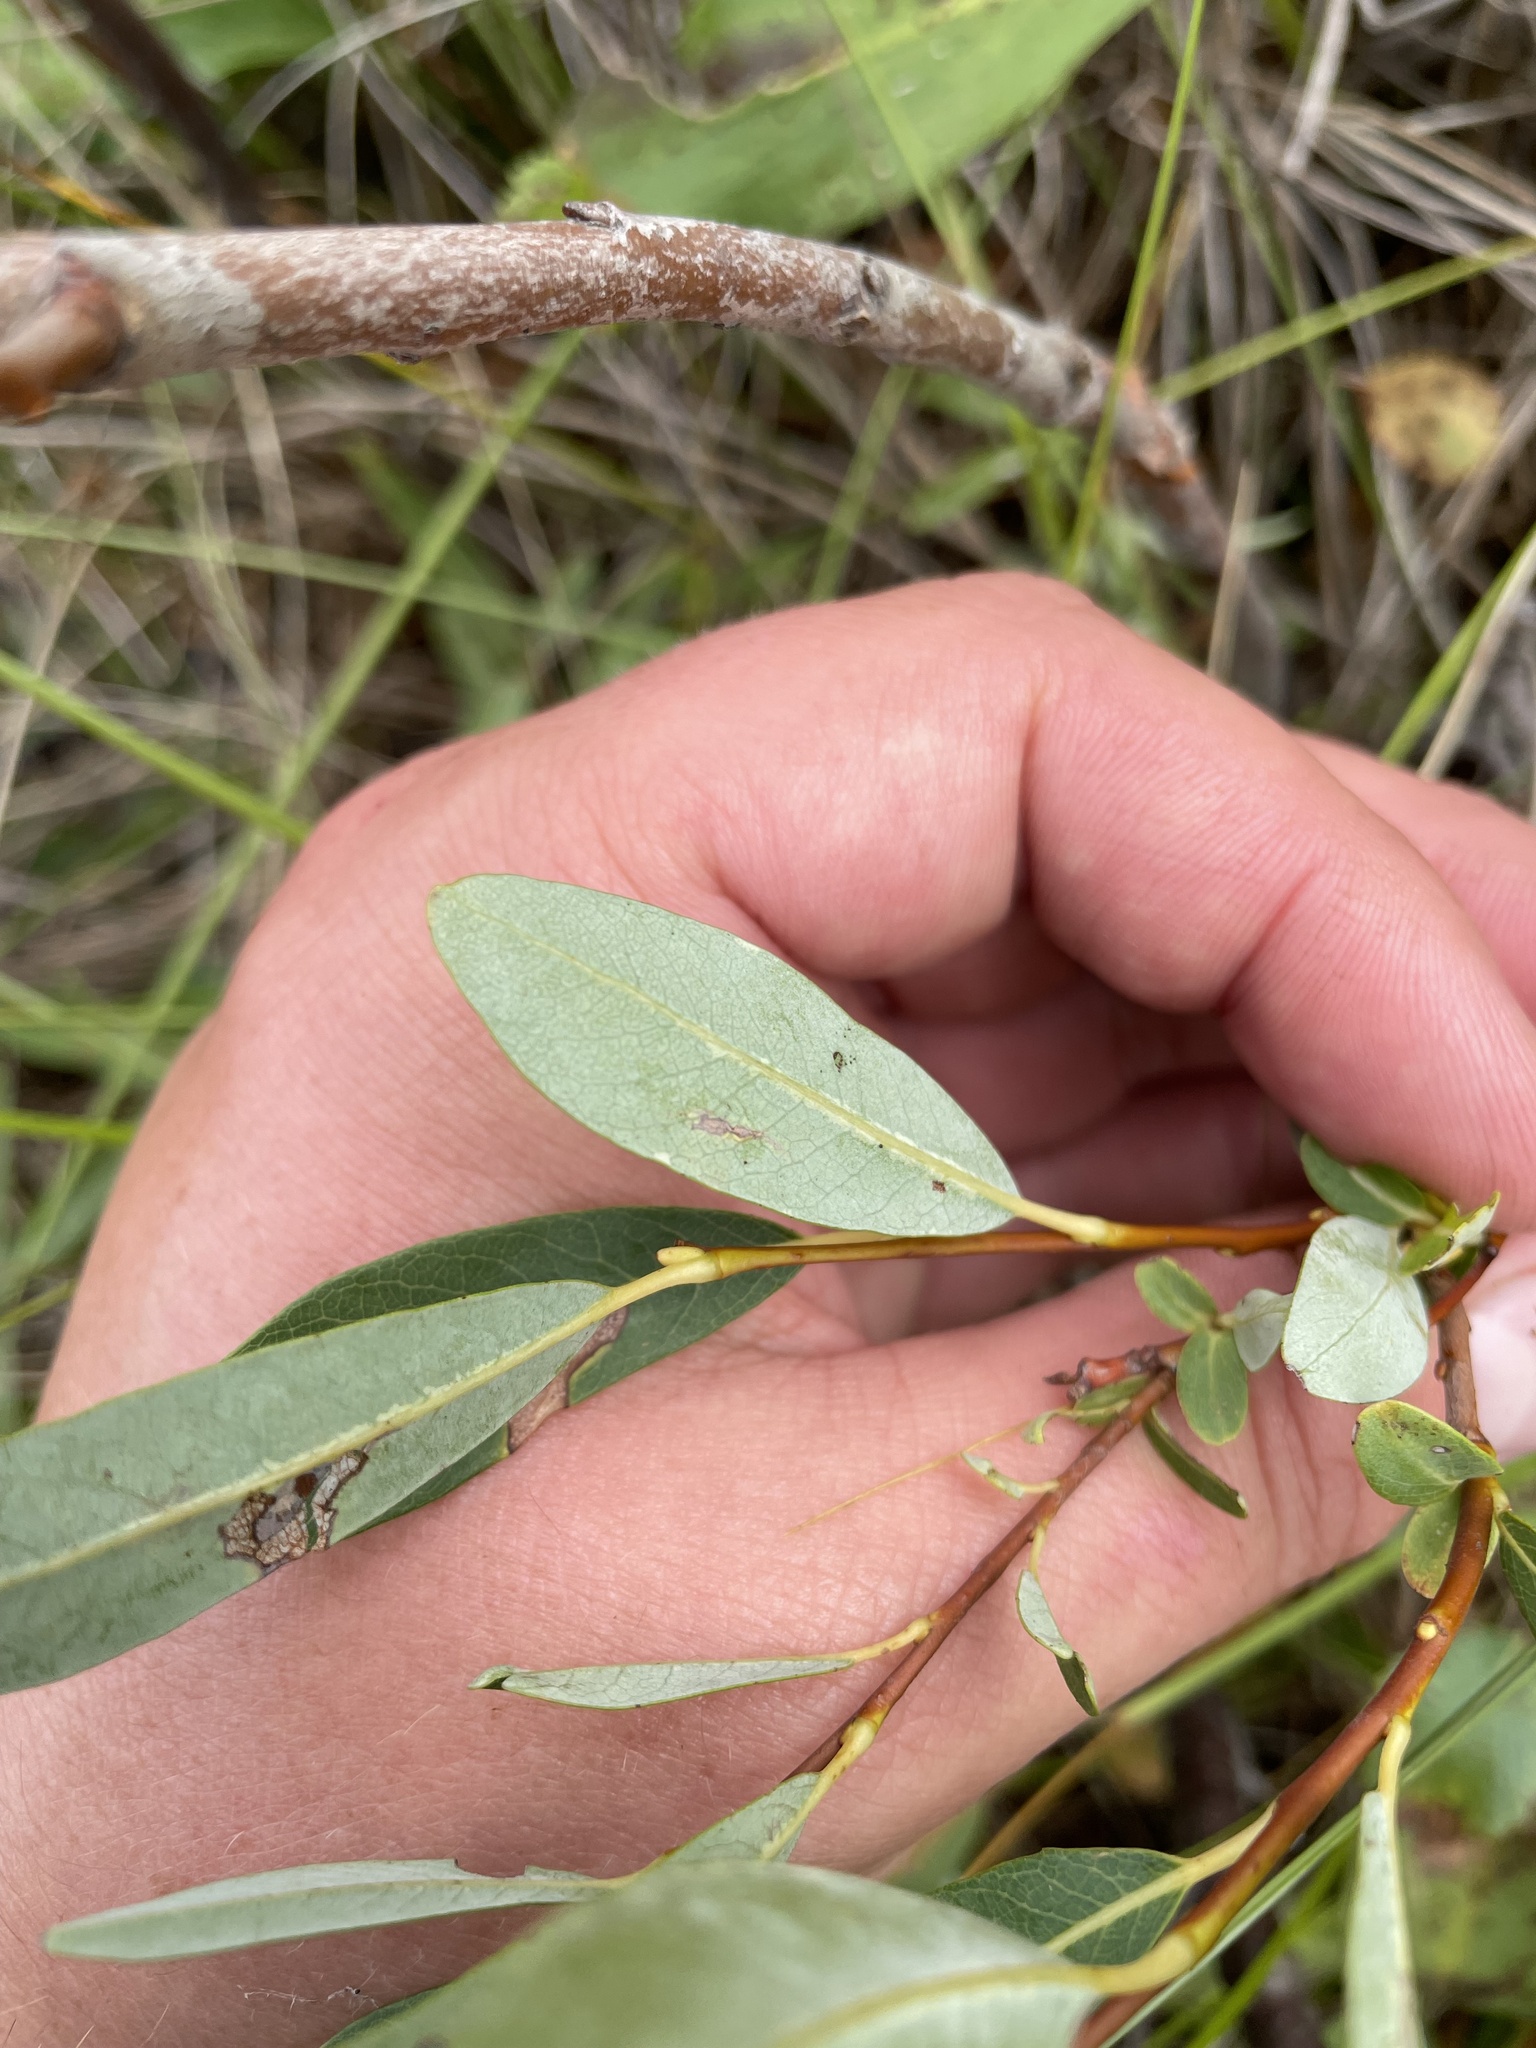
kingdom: Plantae
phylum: Tracheophyta
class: Magnoliopsida
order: Malpighiales
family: Salicaceae
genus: Salix
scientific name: Salix pedicellaris
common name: Bog willow
